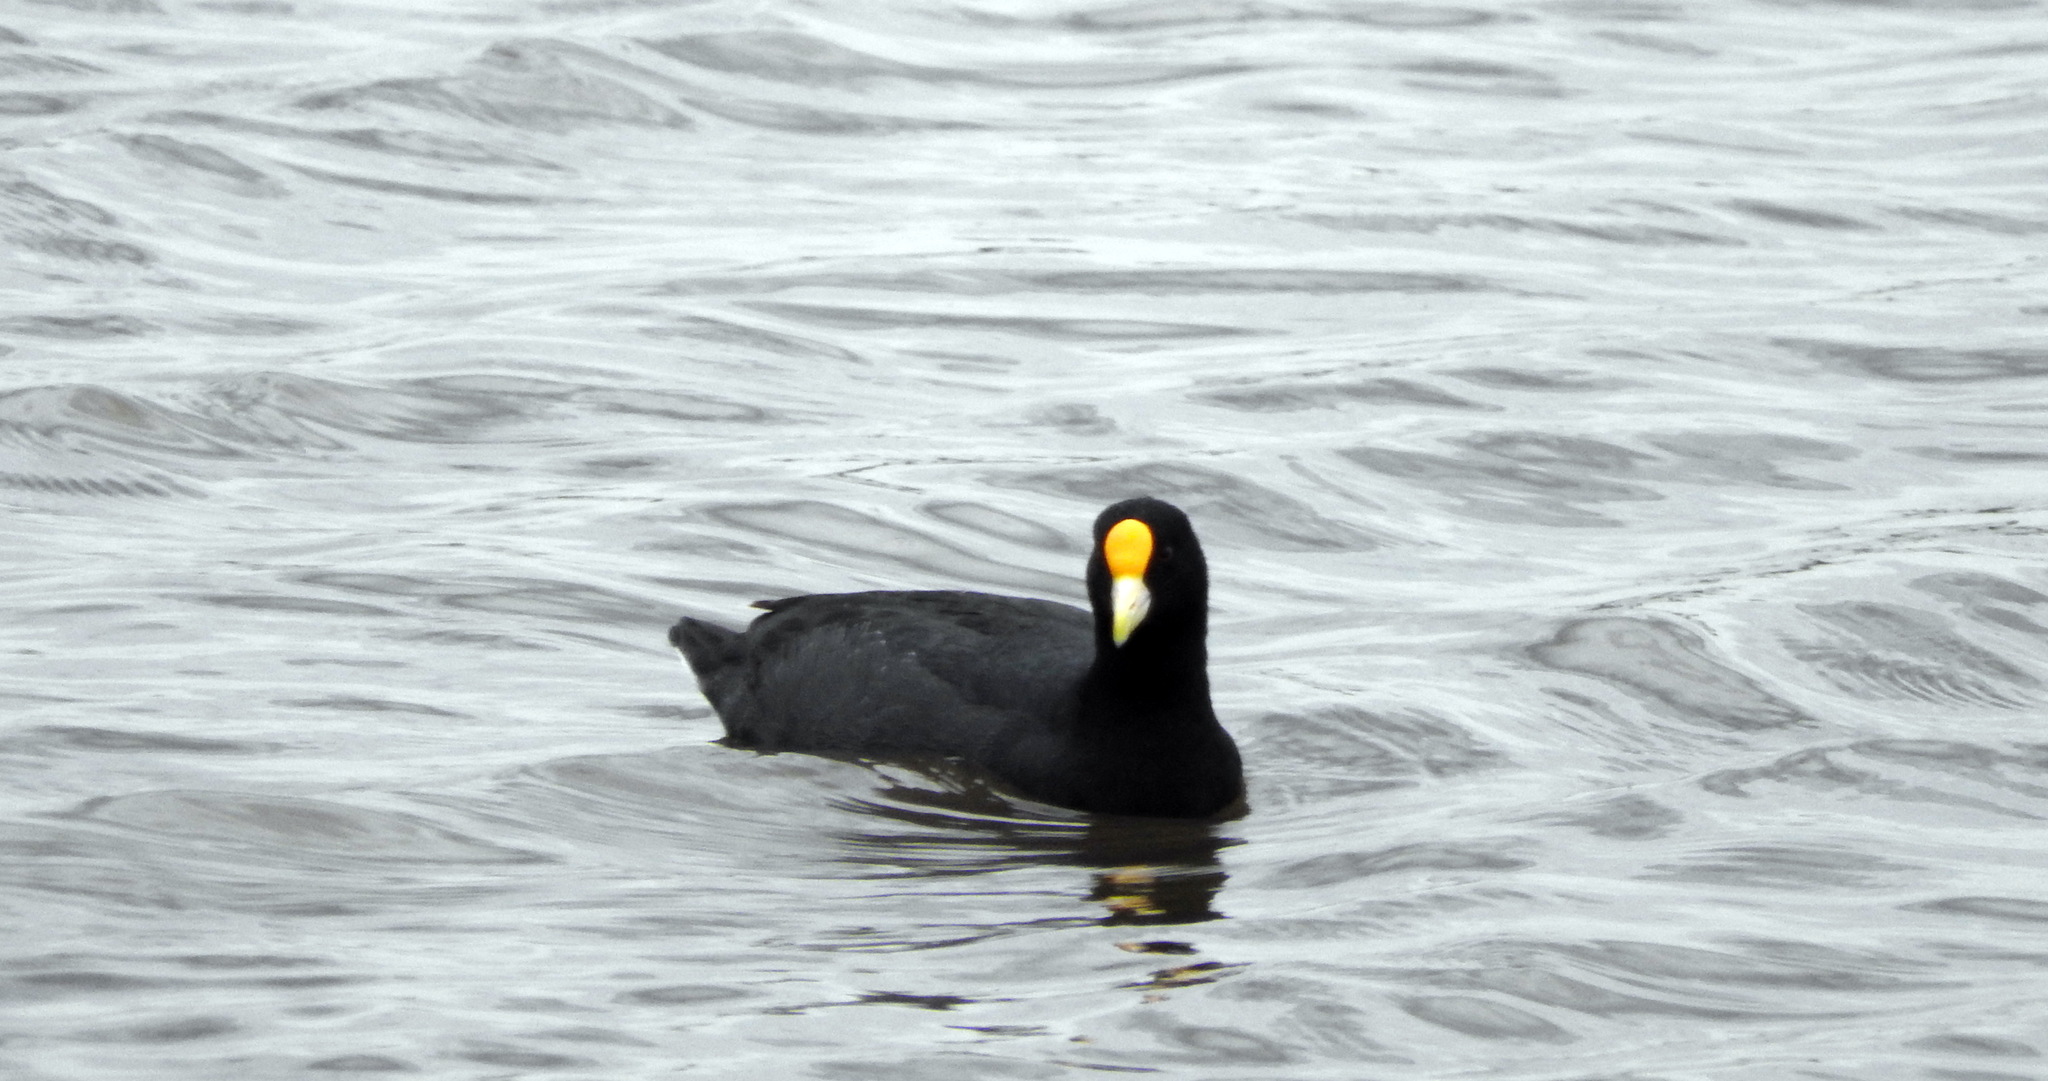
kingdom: Animalia
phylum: Chordata
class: Aves
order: Gruiformes
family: Rallidae
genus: Fulica
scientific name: Fulica leucoptera
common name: White-winged coot
